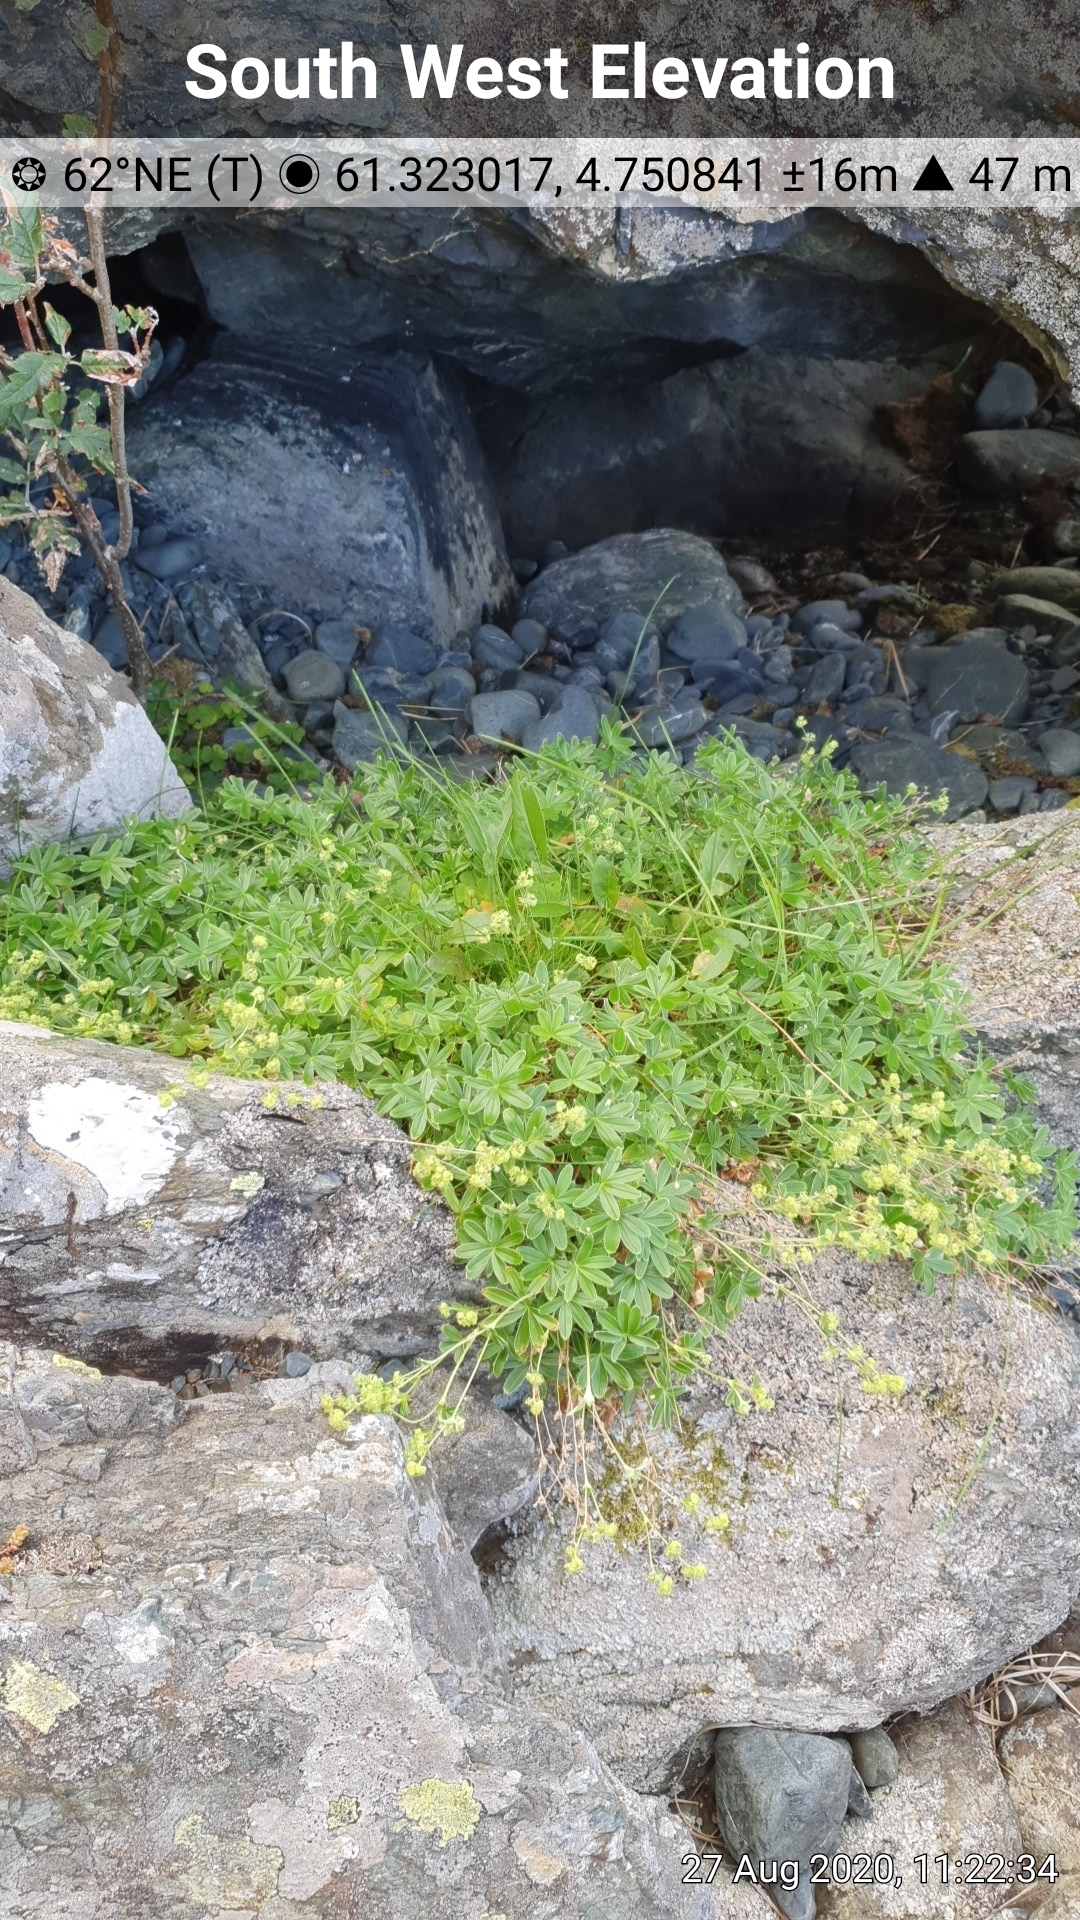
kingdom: Plantae
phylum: Tracheophyta
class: Magnoliopsida
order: Rosales
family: Rosaceae
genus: Alchemilla
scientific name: Alchemilla alpina
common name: Alpine lady's-mantle
